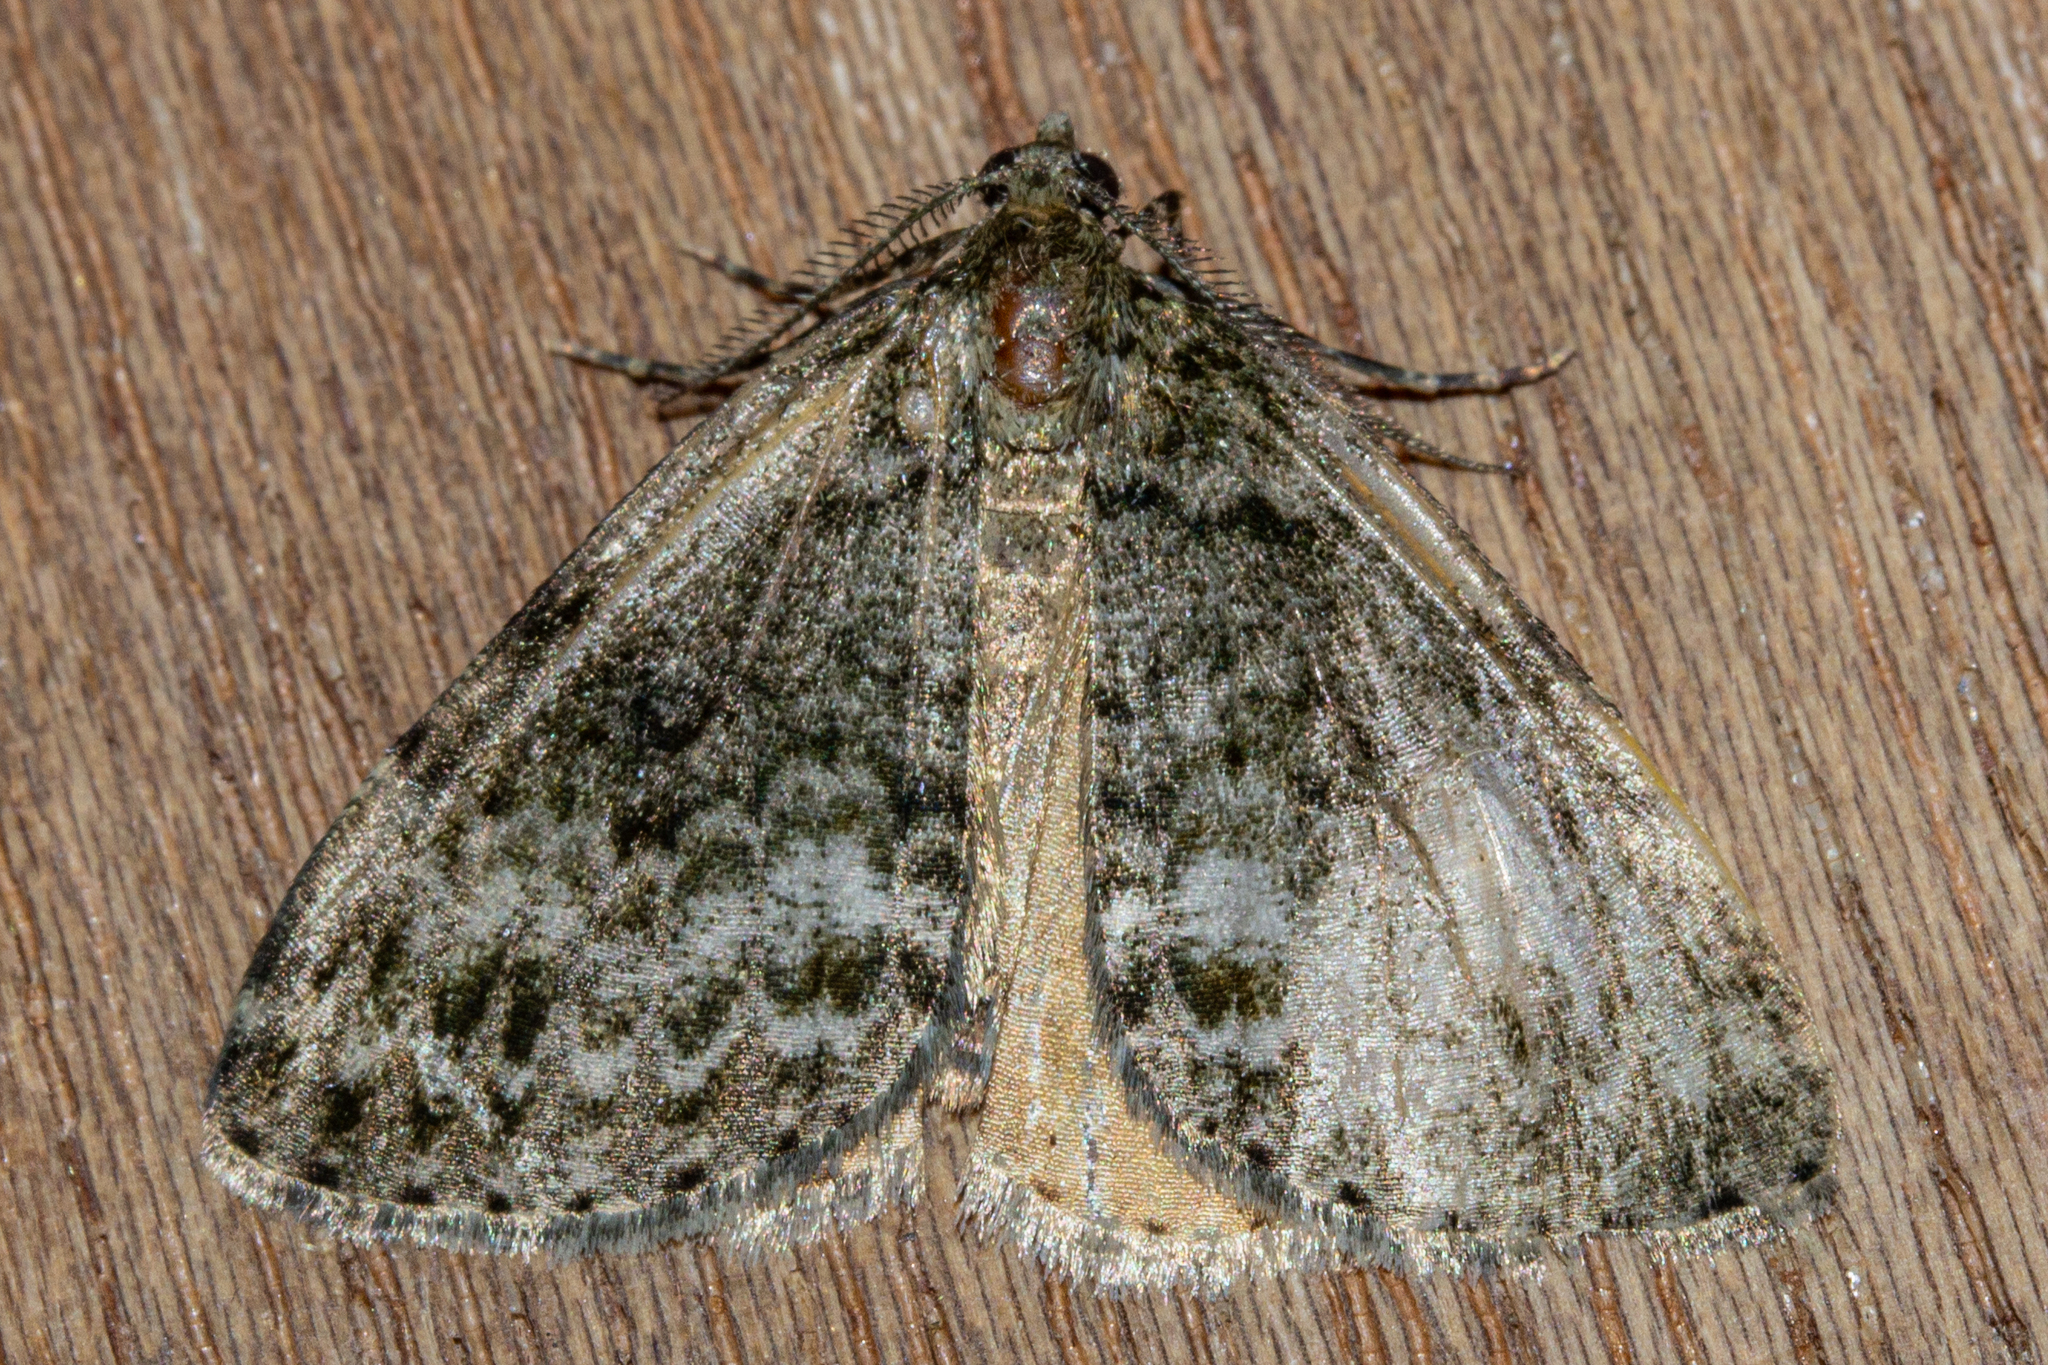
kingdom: Animalia
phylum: Arthropoda
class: Insecta
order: Lepidoptera
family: Geometridae
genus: Pseudocoremia
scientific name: Pseudocoremia indistincta
